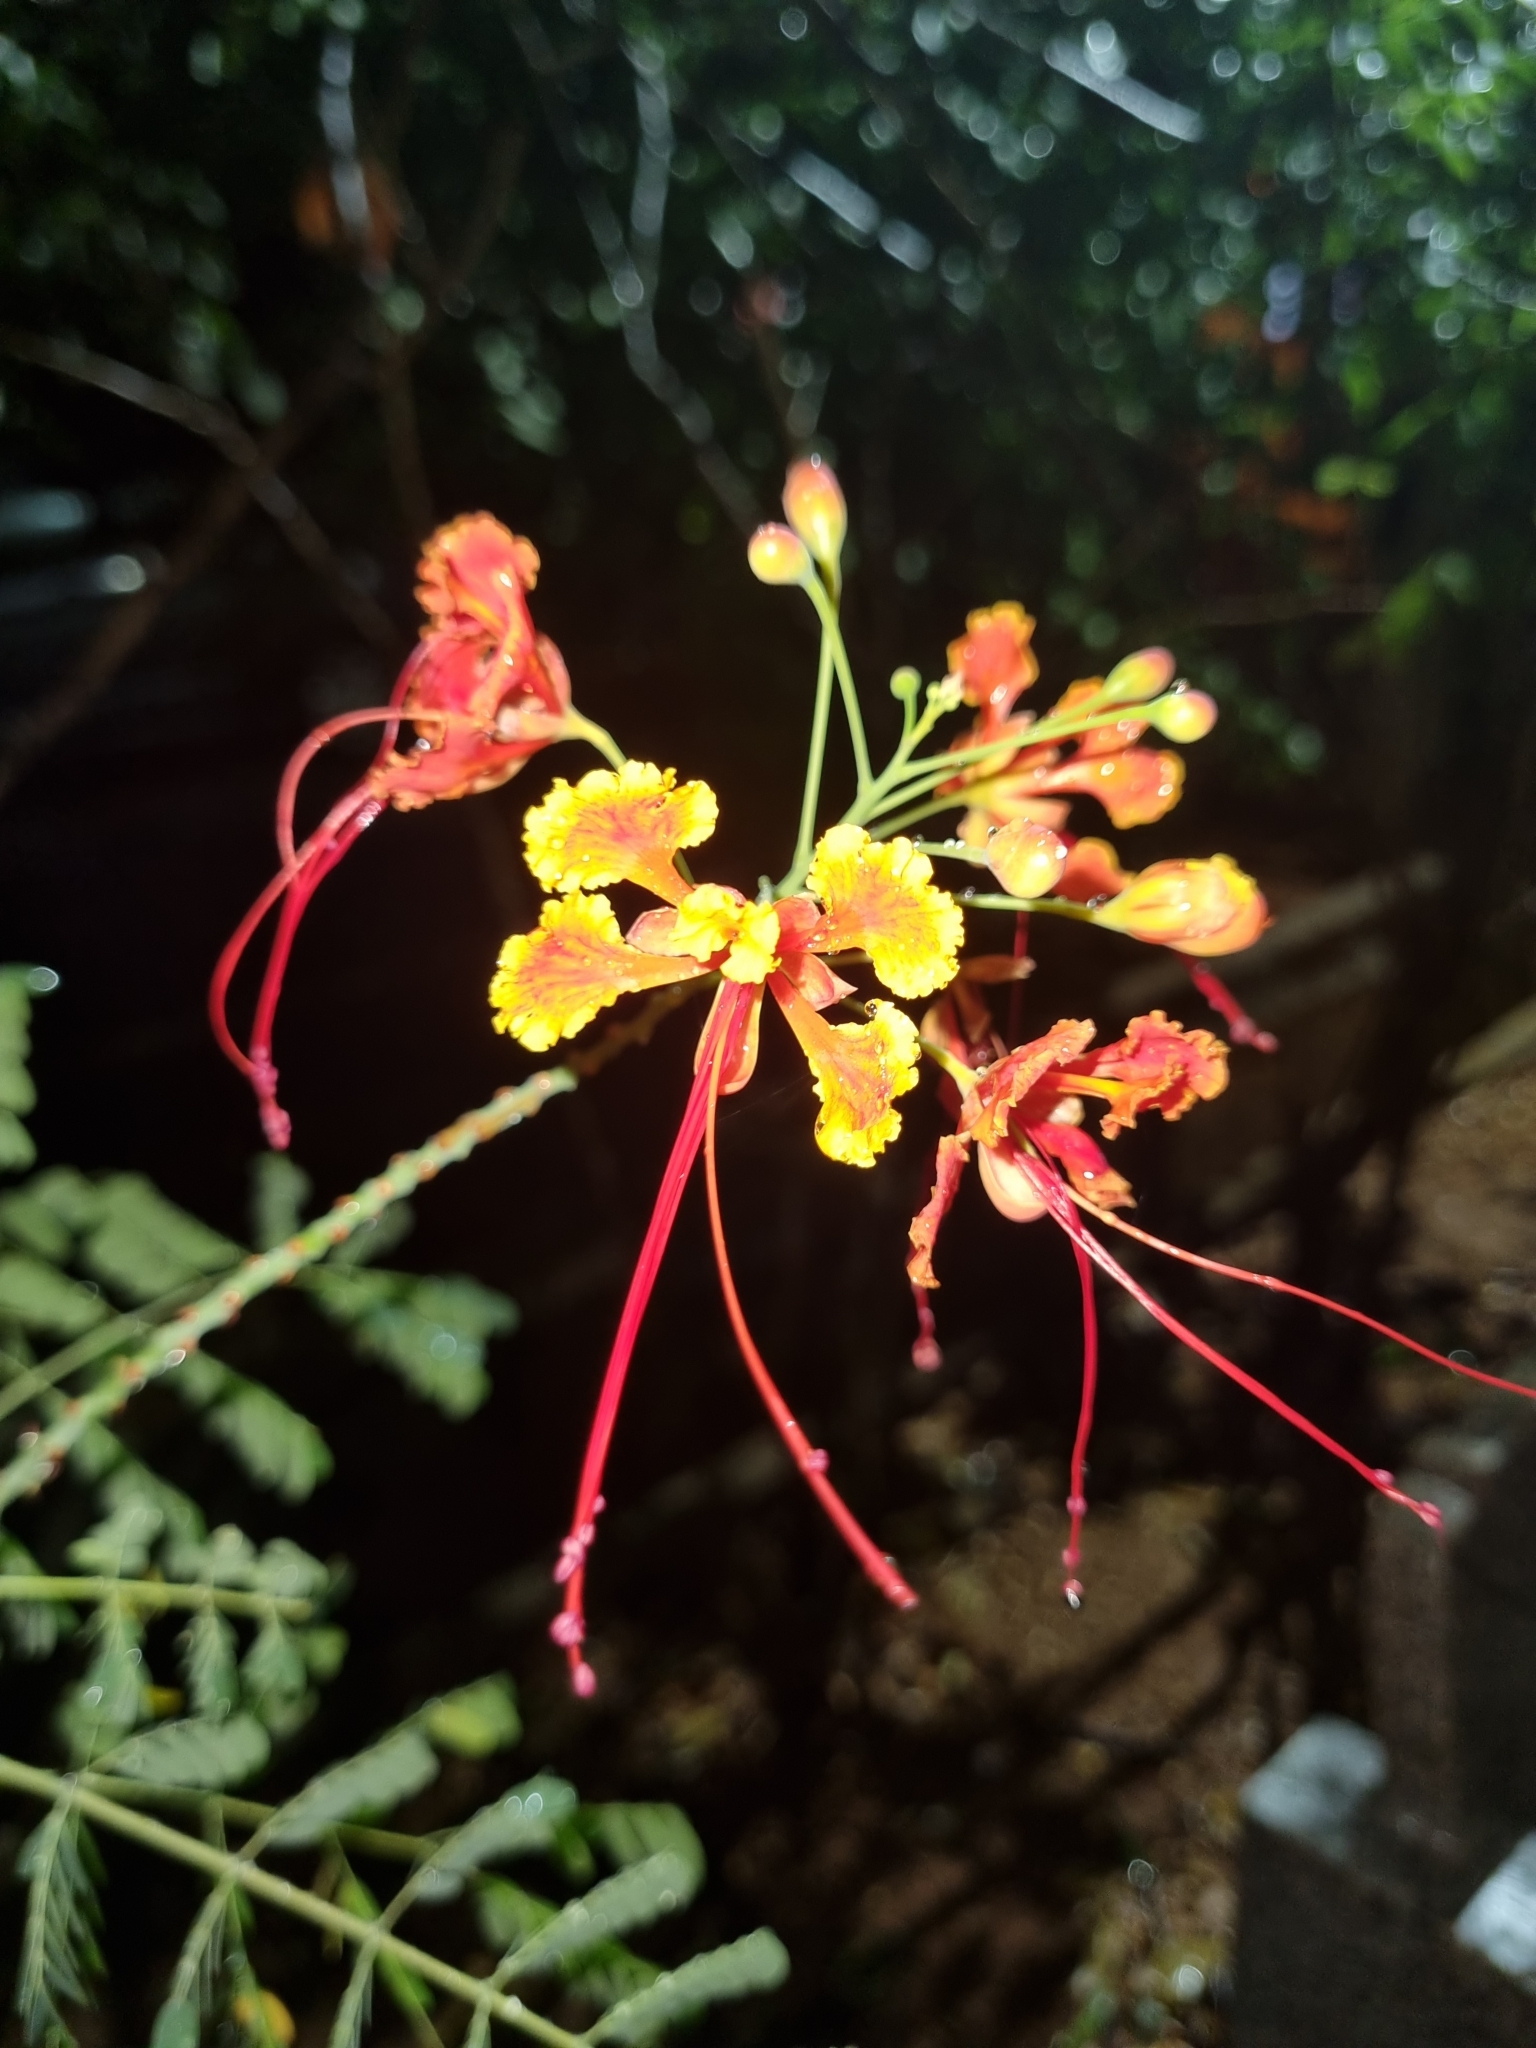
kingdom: Plantae
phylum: Tracheophyta
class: Magnoliopsida
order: Fabales
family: Fabaceae
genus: Caesalpinia
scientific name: Caesalpinia pulcherrima
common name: Pride-of-barbados
